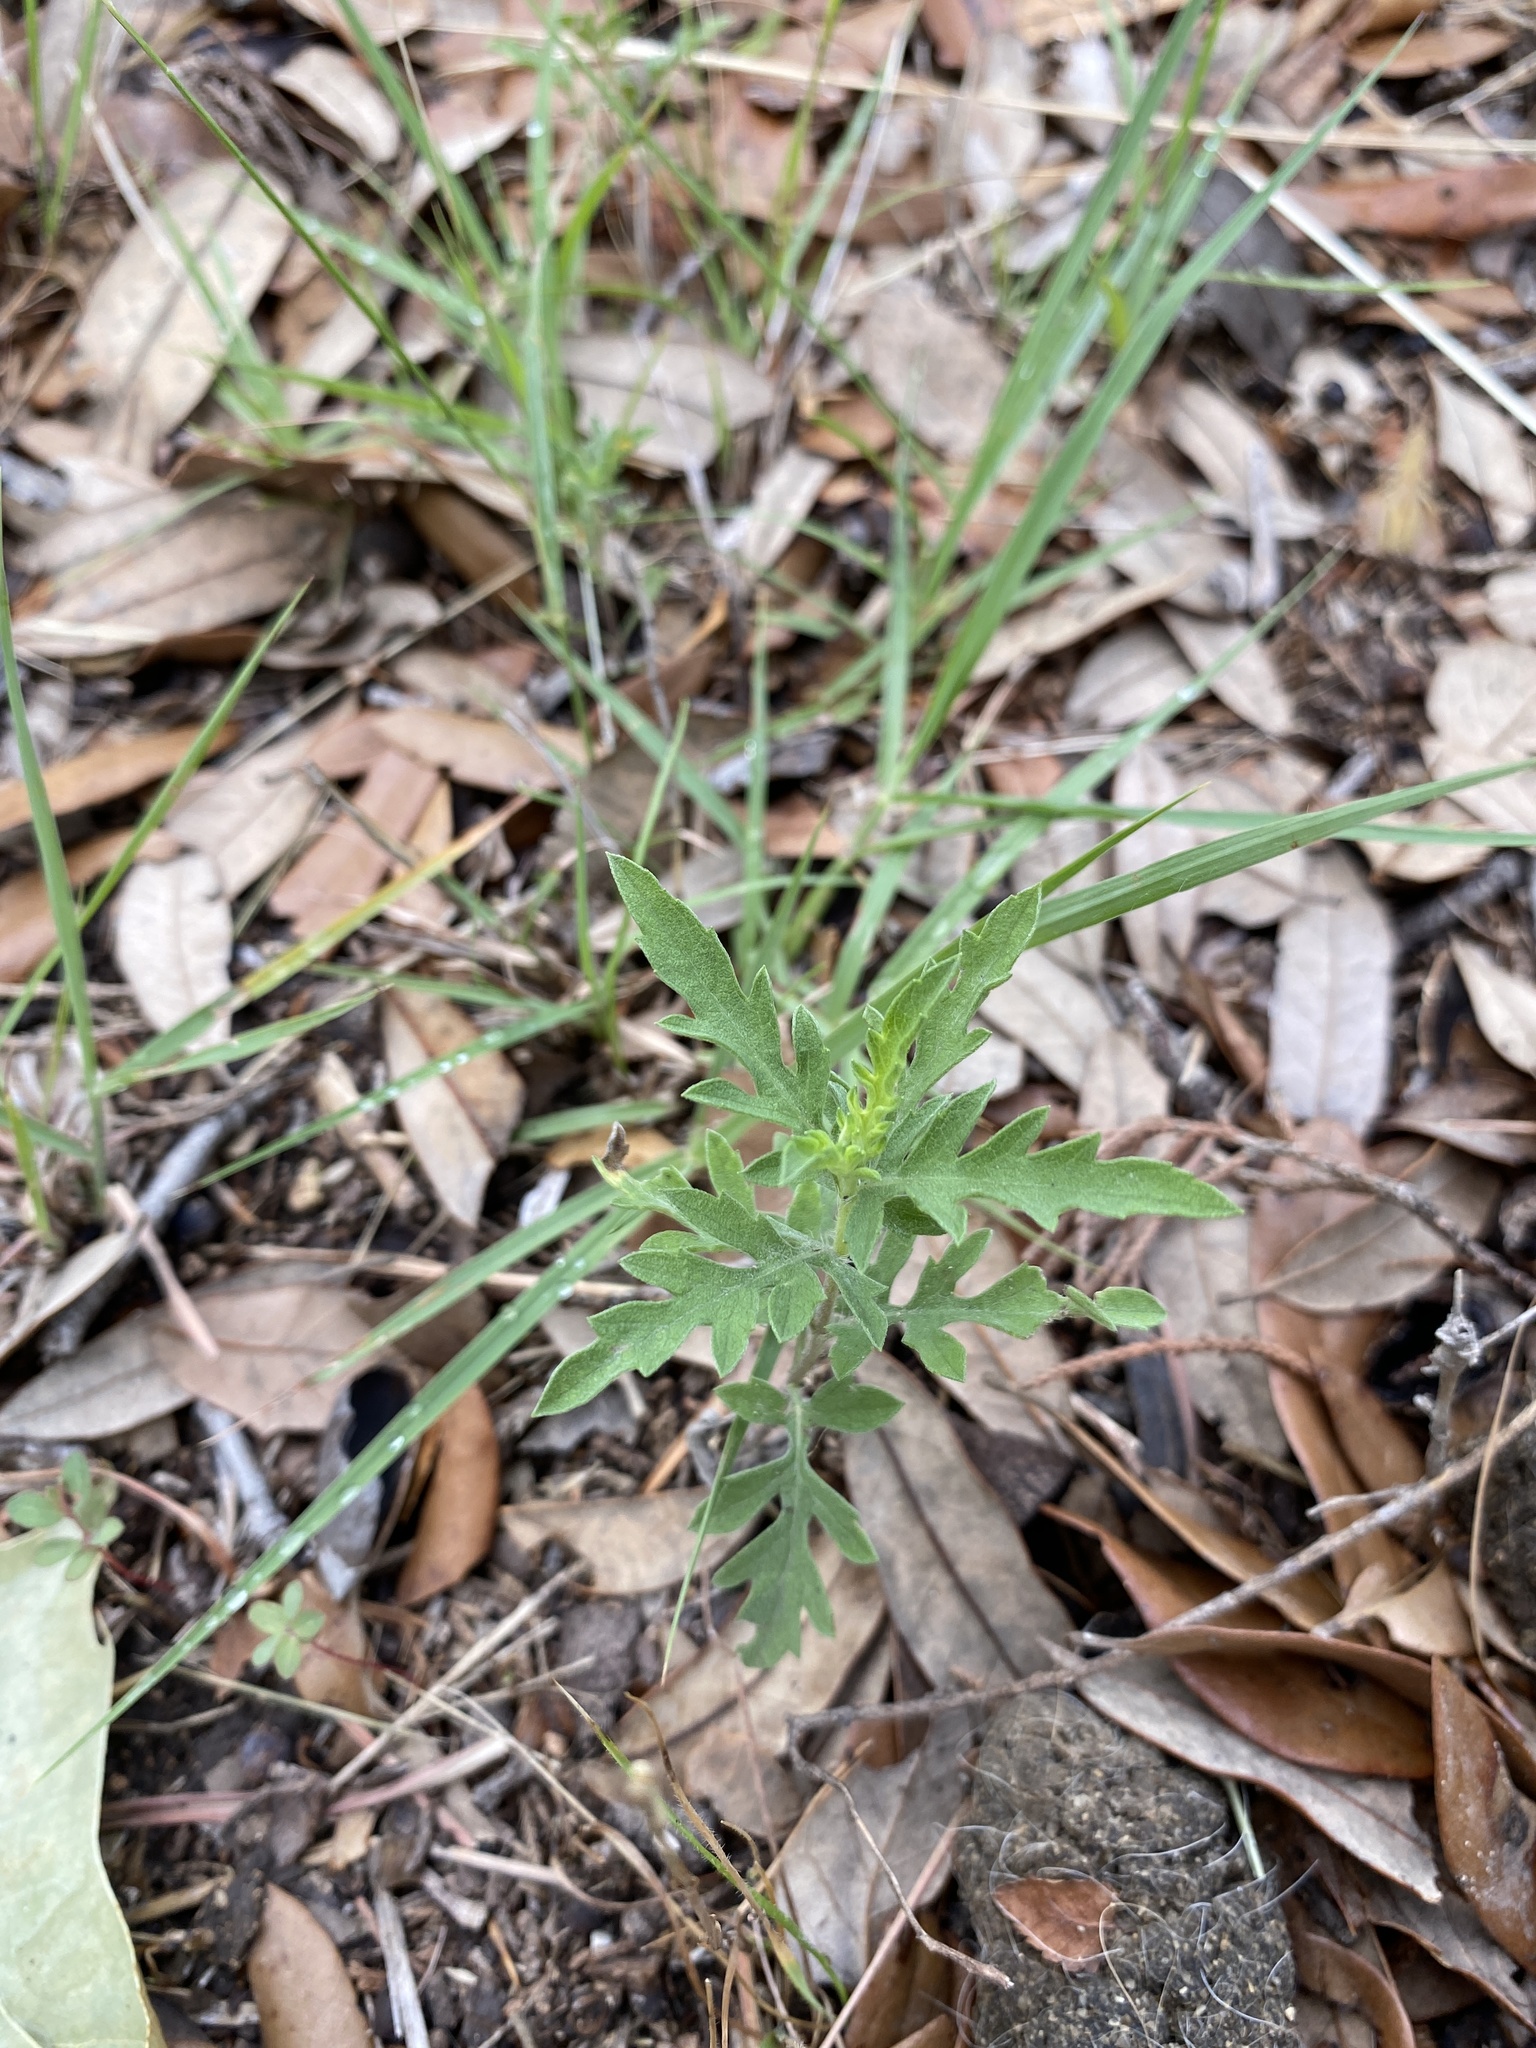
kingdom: Plantae
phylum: Tracheophyta
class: Magnoliopsida
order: Asterales
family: Asteraceae
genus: Ambrosia
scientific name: Ambrosia psilostachya
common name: Perennial ragweed
